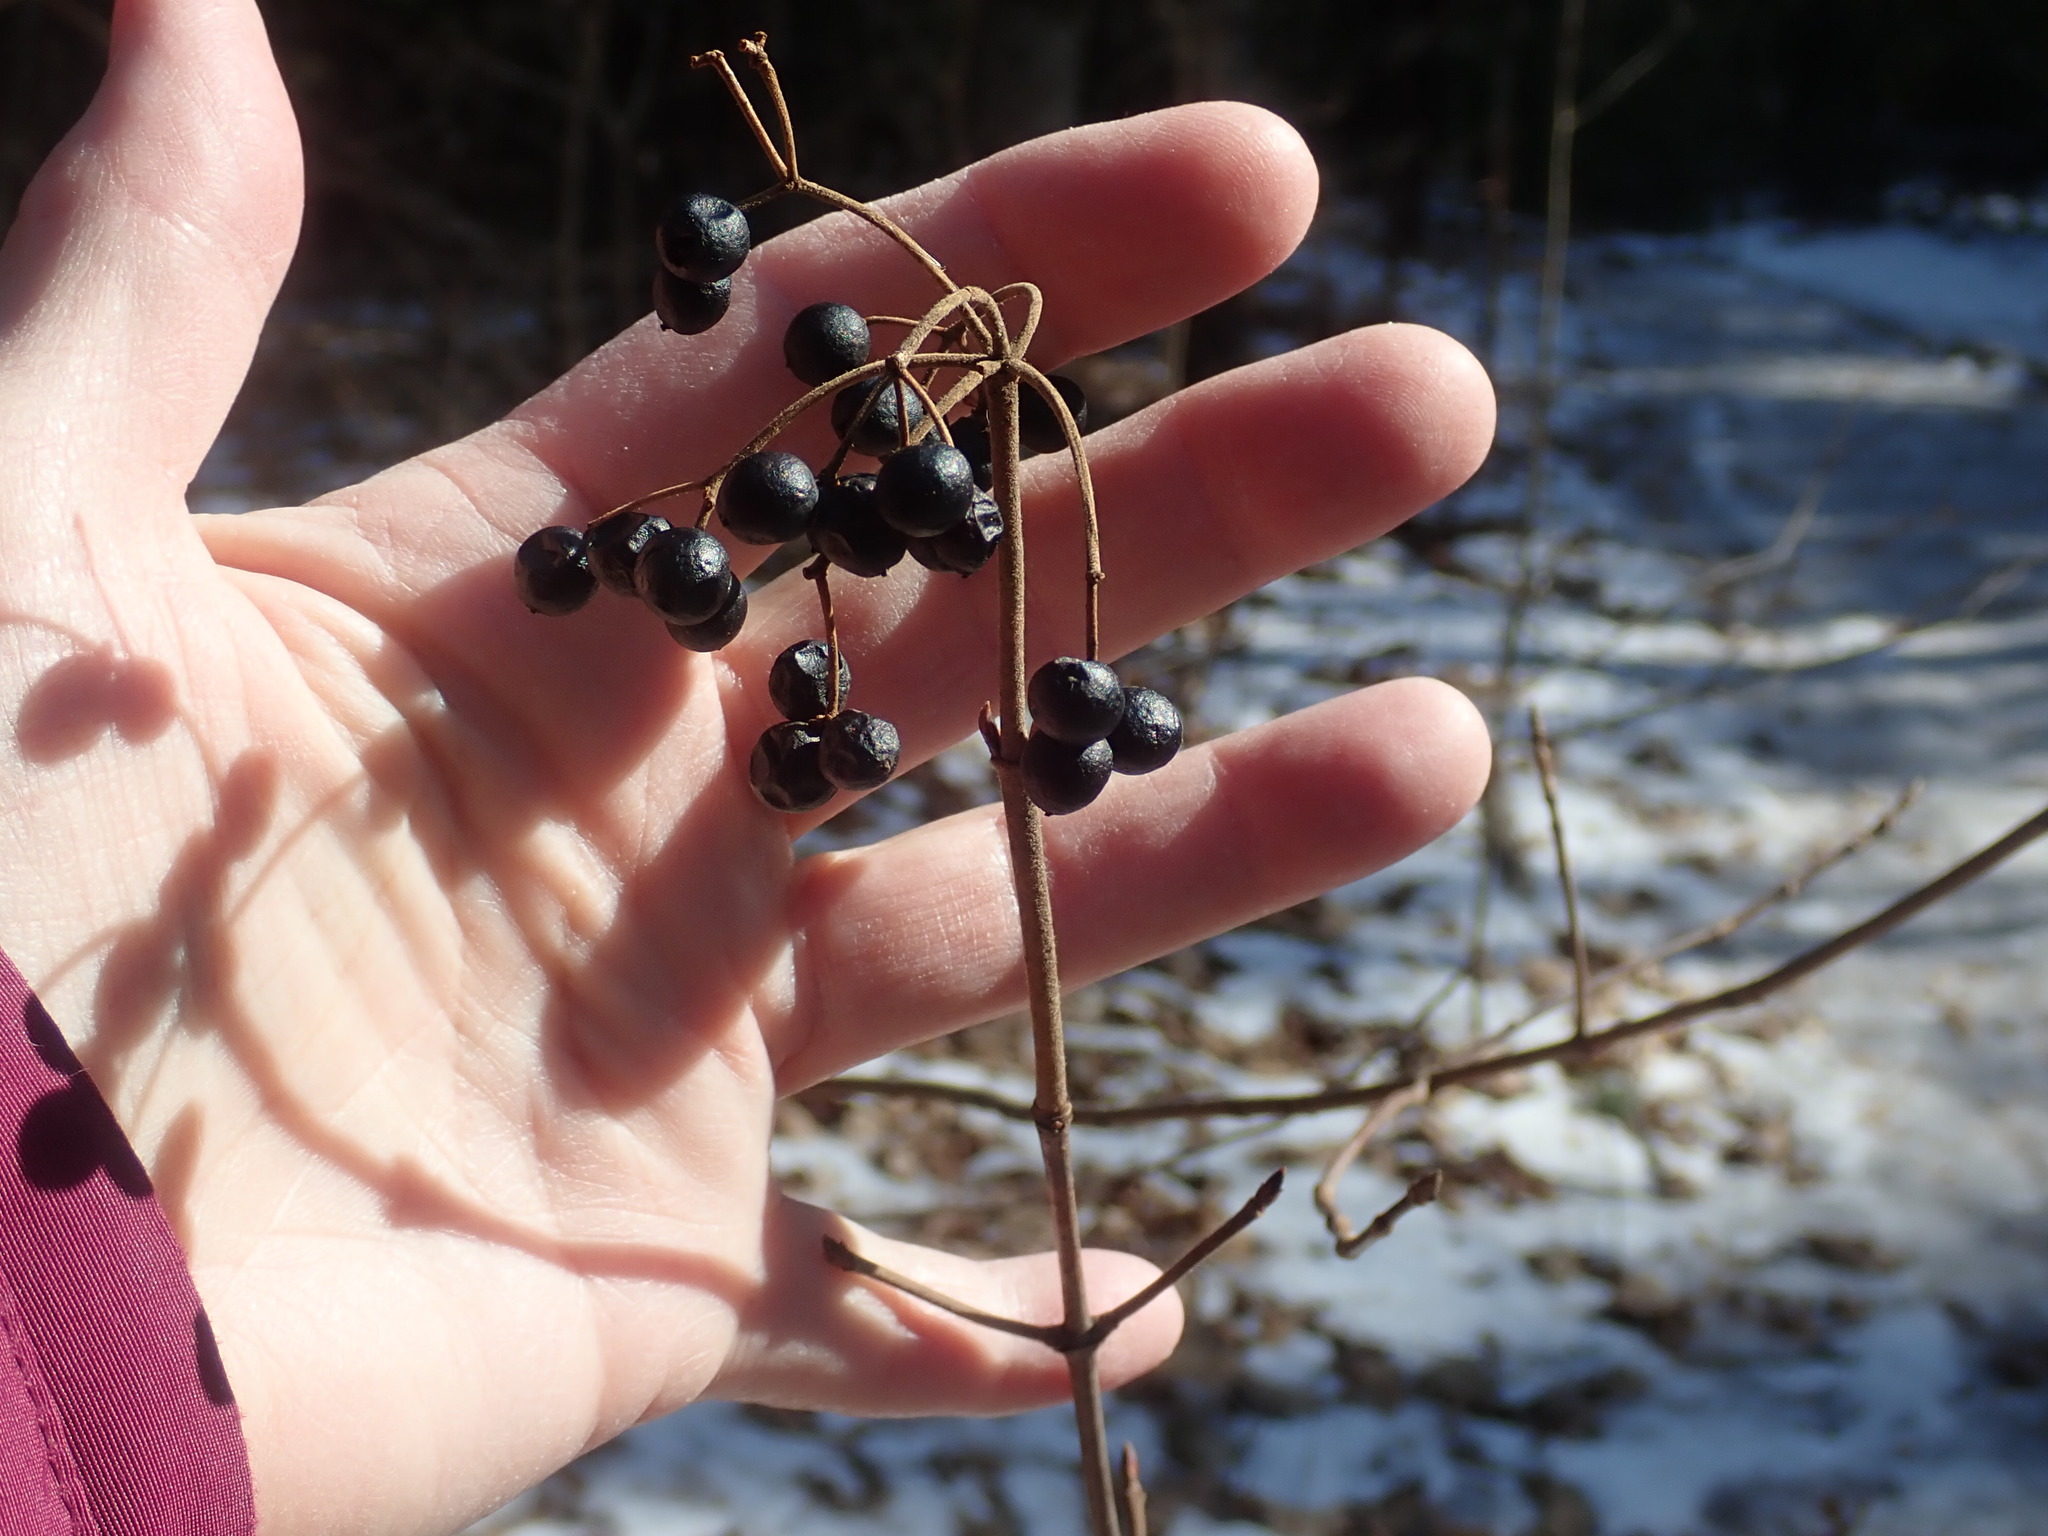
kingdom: Plantae
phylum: Tracheophyta
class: Magnoliopsida
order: Dipsacales
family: Viburnaceae
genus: Viburnum
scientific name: Viburnum acerifolium
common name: Dockmackie
